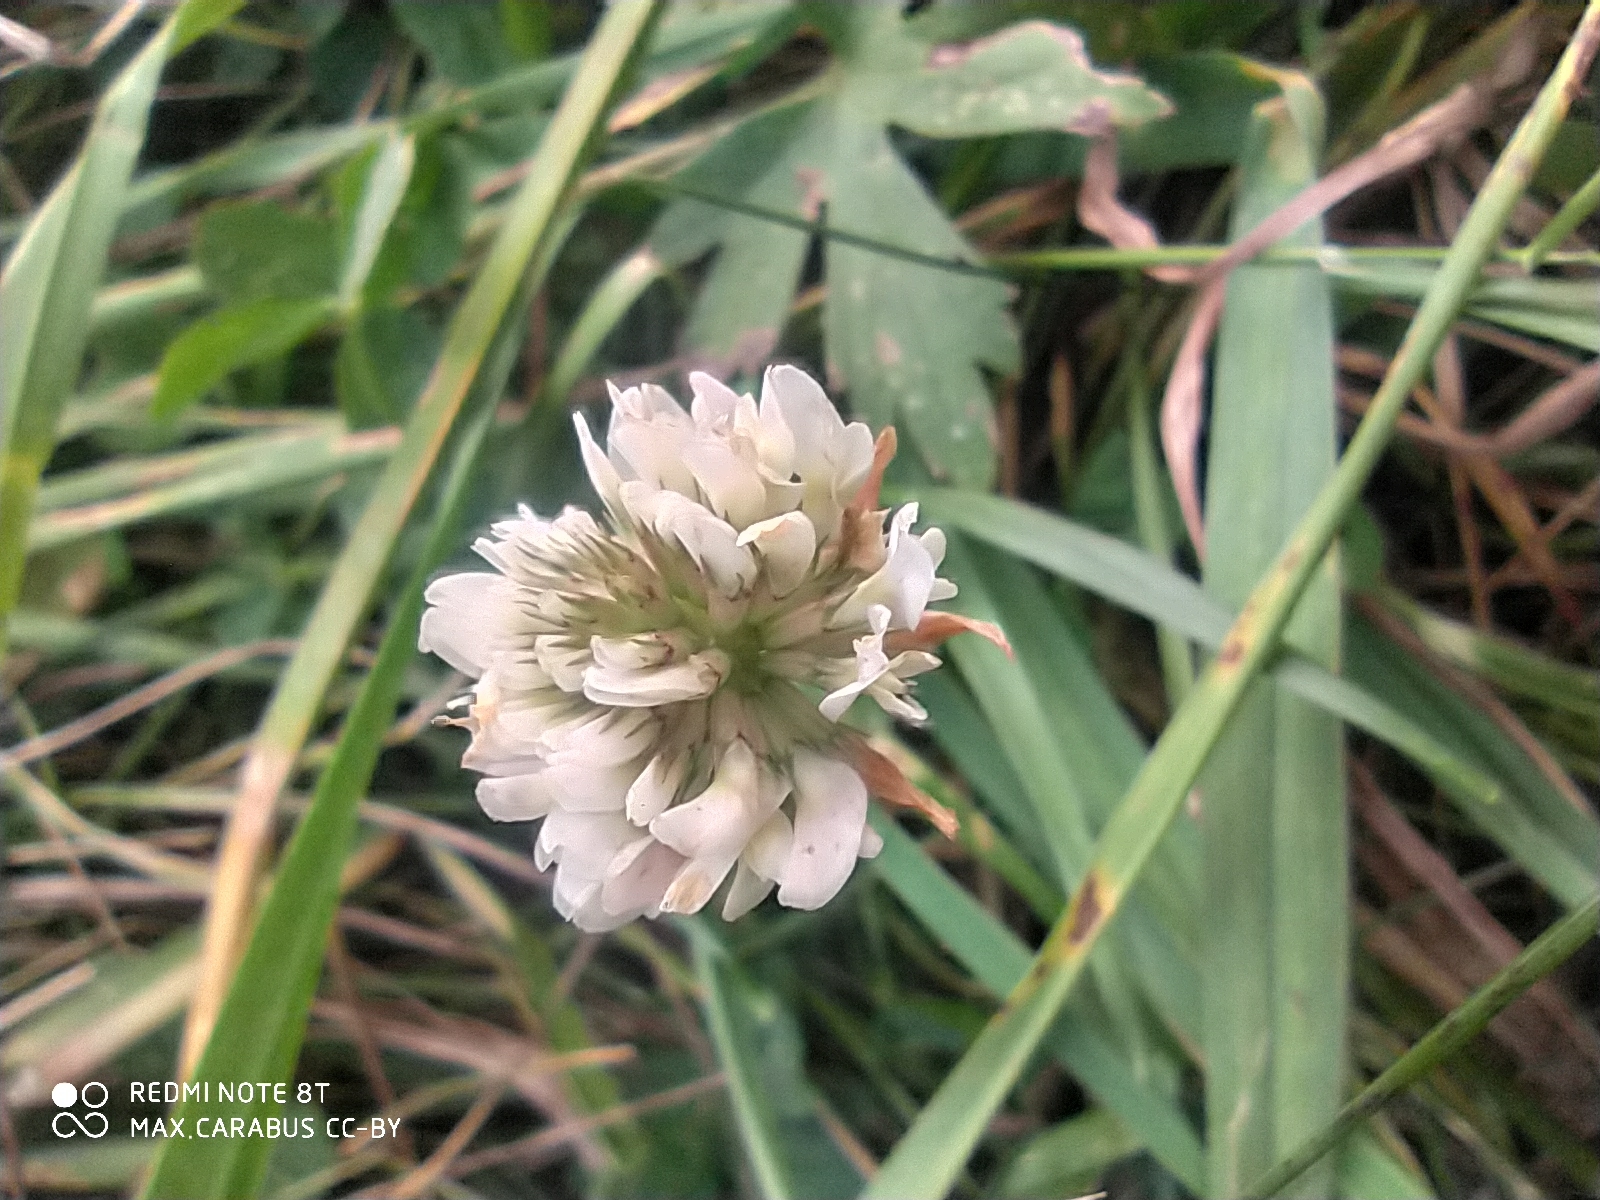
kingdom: Plantae
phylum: Tracheophyta
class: Magnoliopsida
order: Fabales
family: Fabaceae
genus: Trifolium
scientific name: Trifolium repens
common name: White clover
